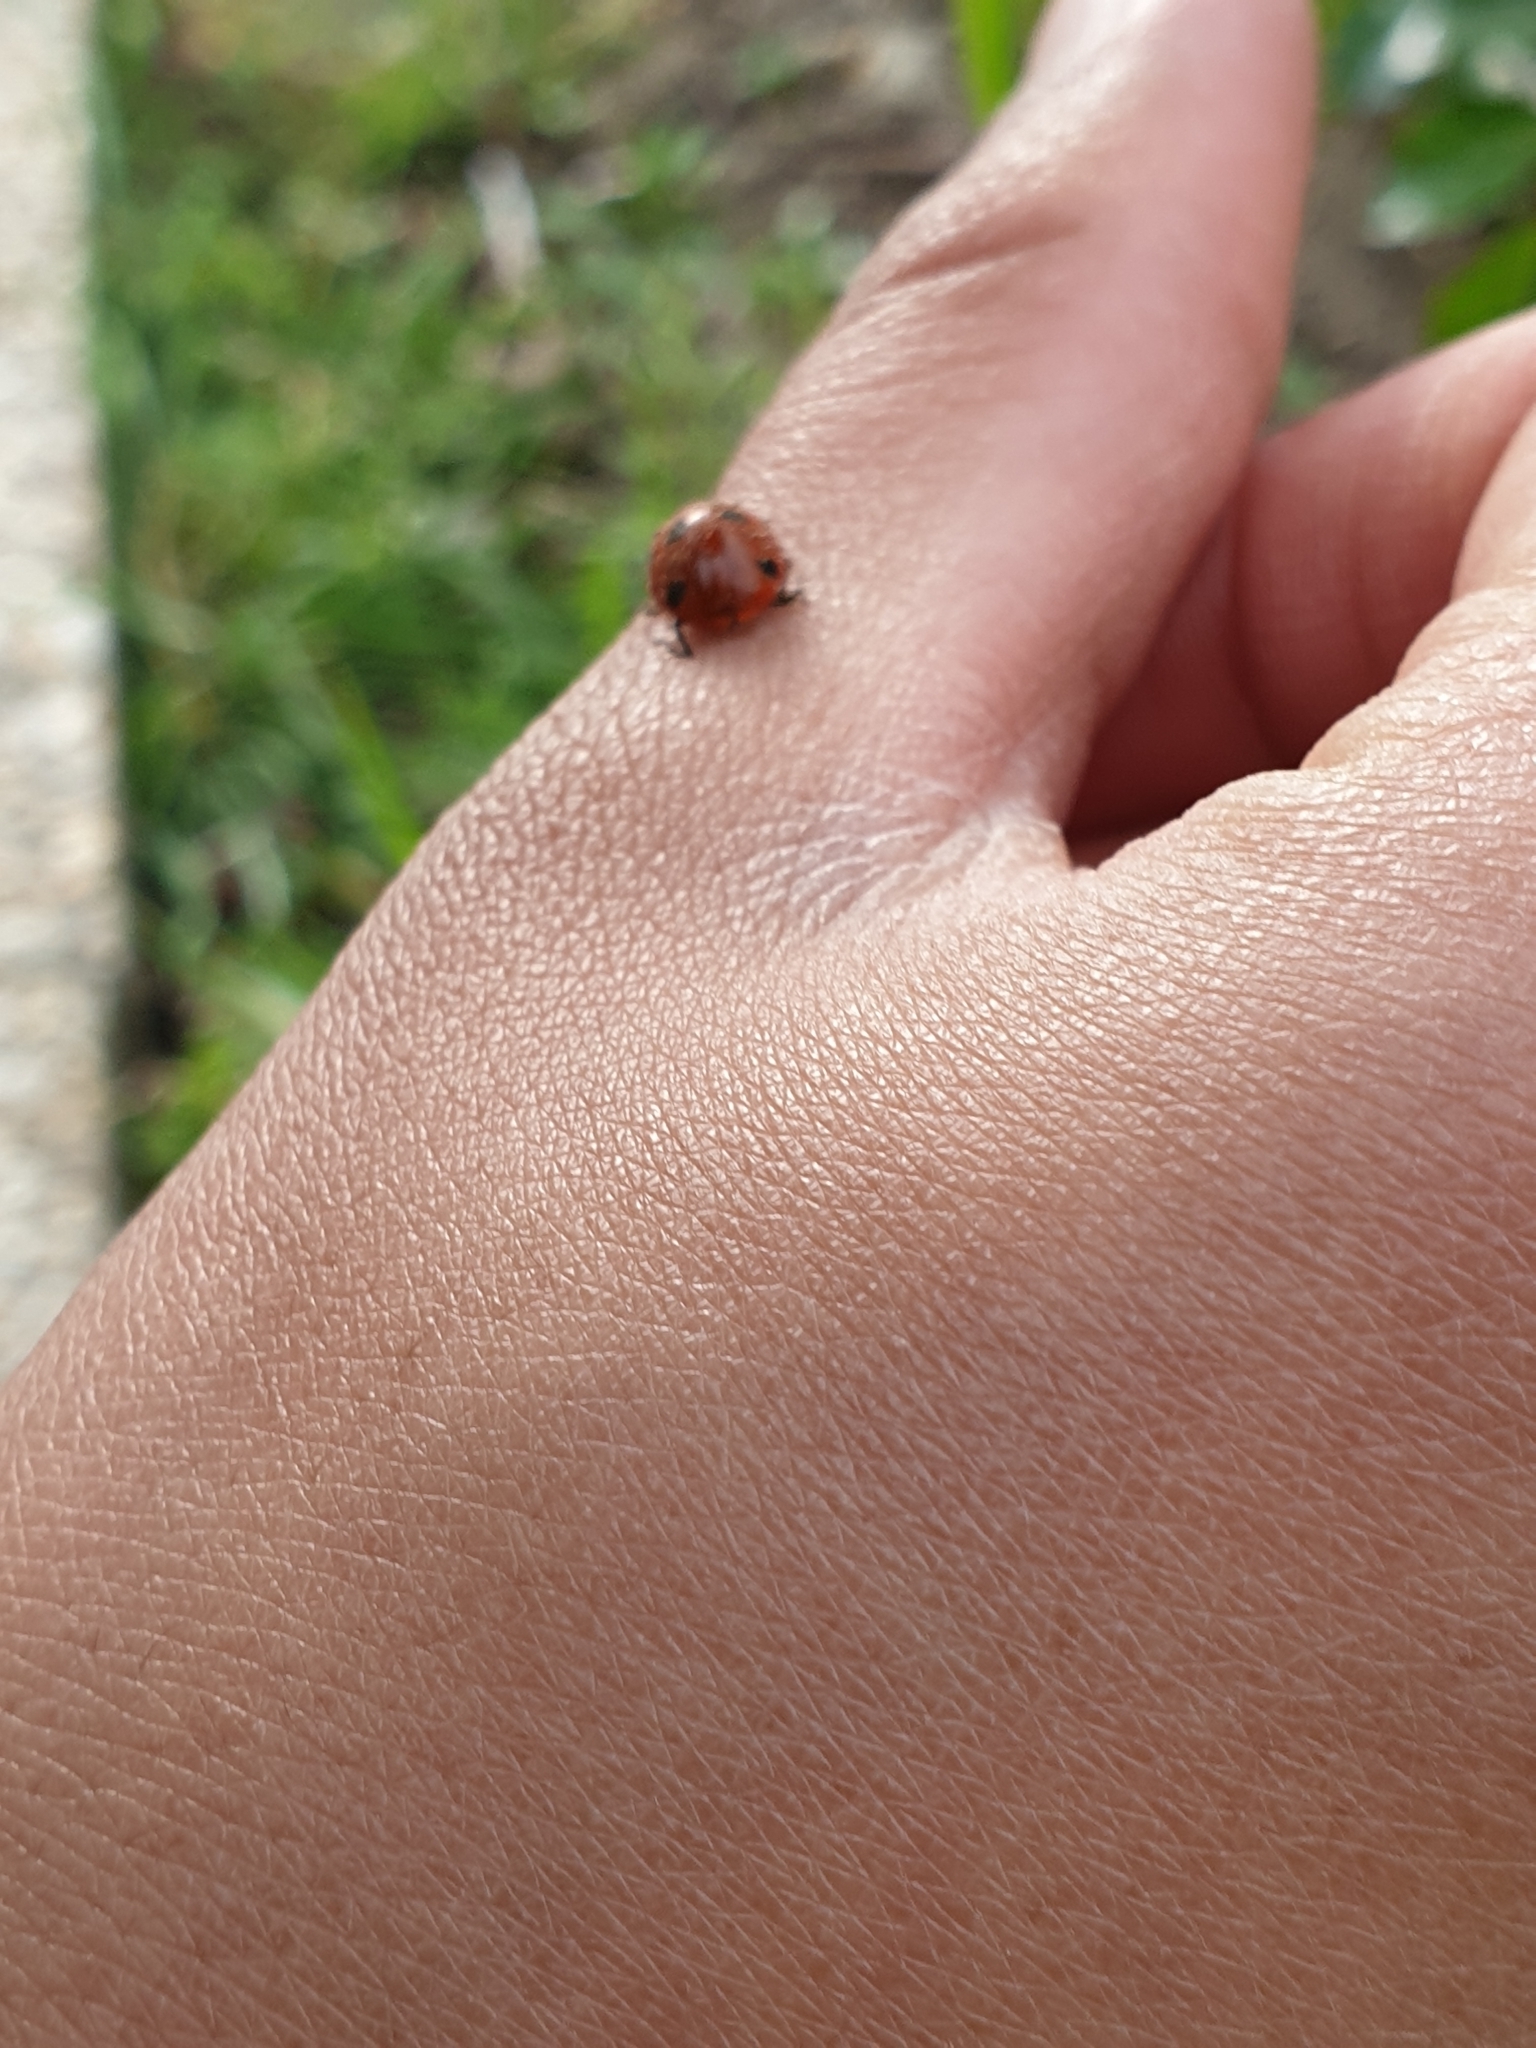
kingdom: Animalia
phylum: Arthropoda
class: Insecta
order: Coleoptera
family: Coccinellidae
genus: Coccinella
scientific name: Coccinella septempunctata
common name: Sevenspotted lady beetle
